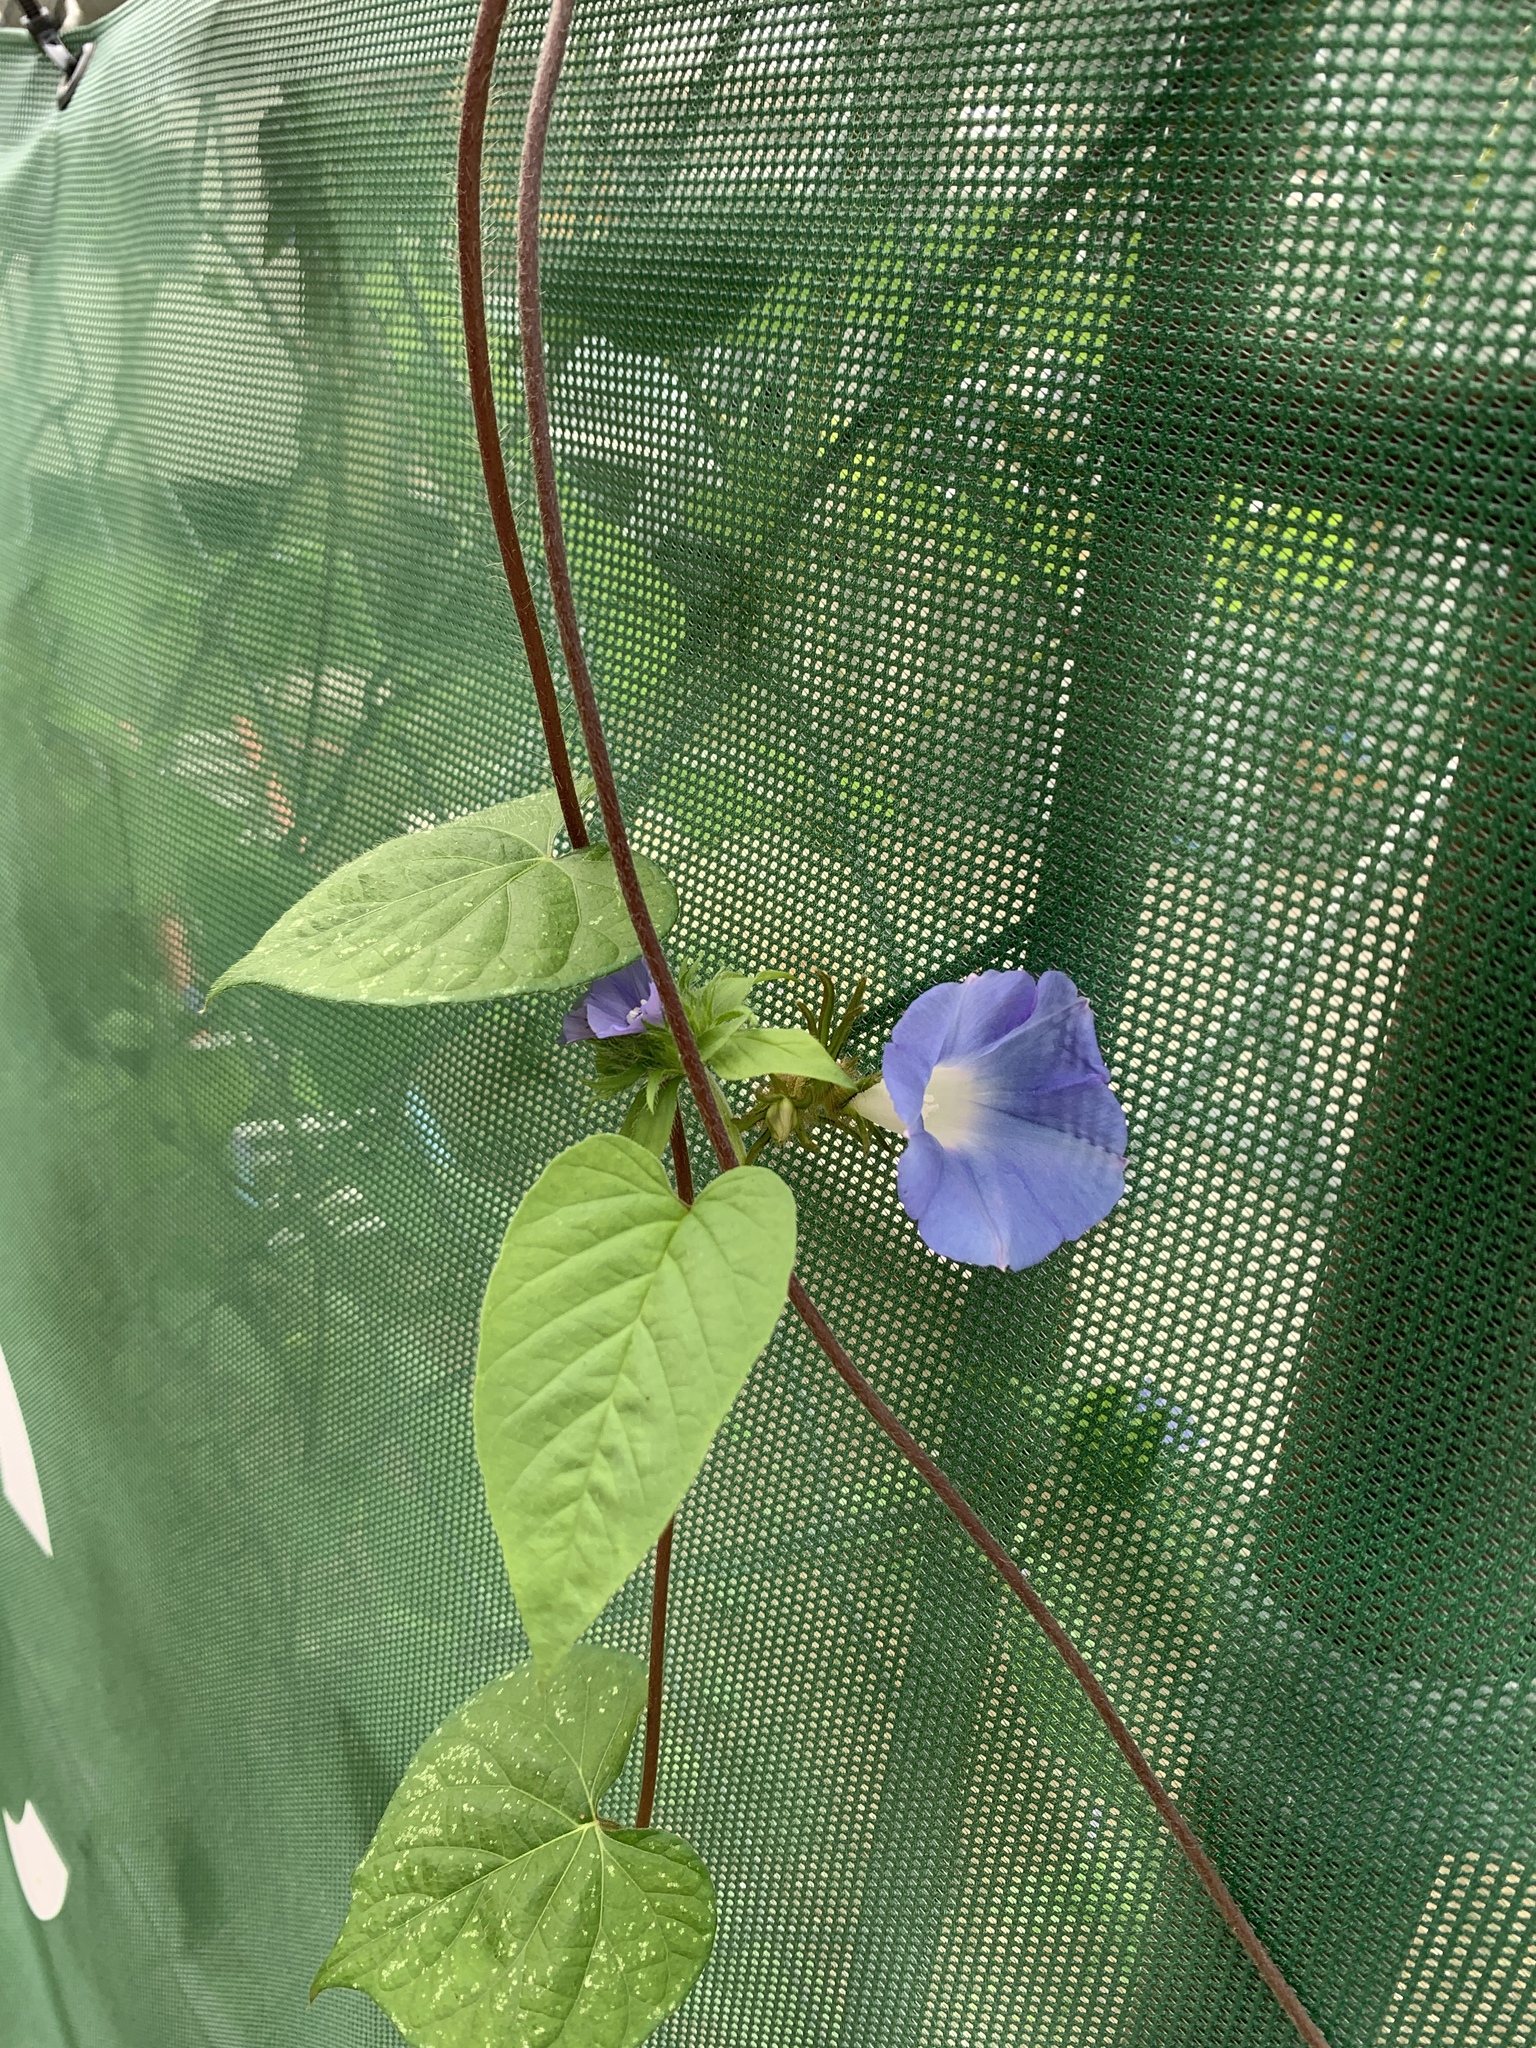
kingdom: Plantae
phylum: Tracheophyta
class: Magnoliopsida
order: Solanales
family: Convolvulaceae
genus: Jacquemontia
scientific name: Jacquemontia tamnifolia
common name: Hairy clustervine
